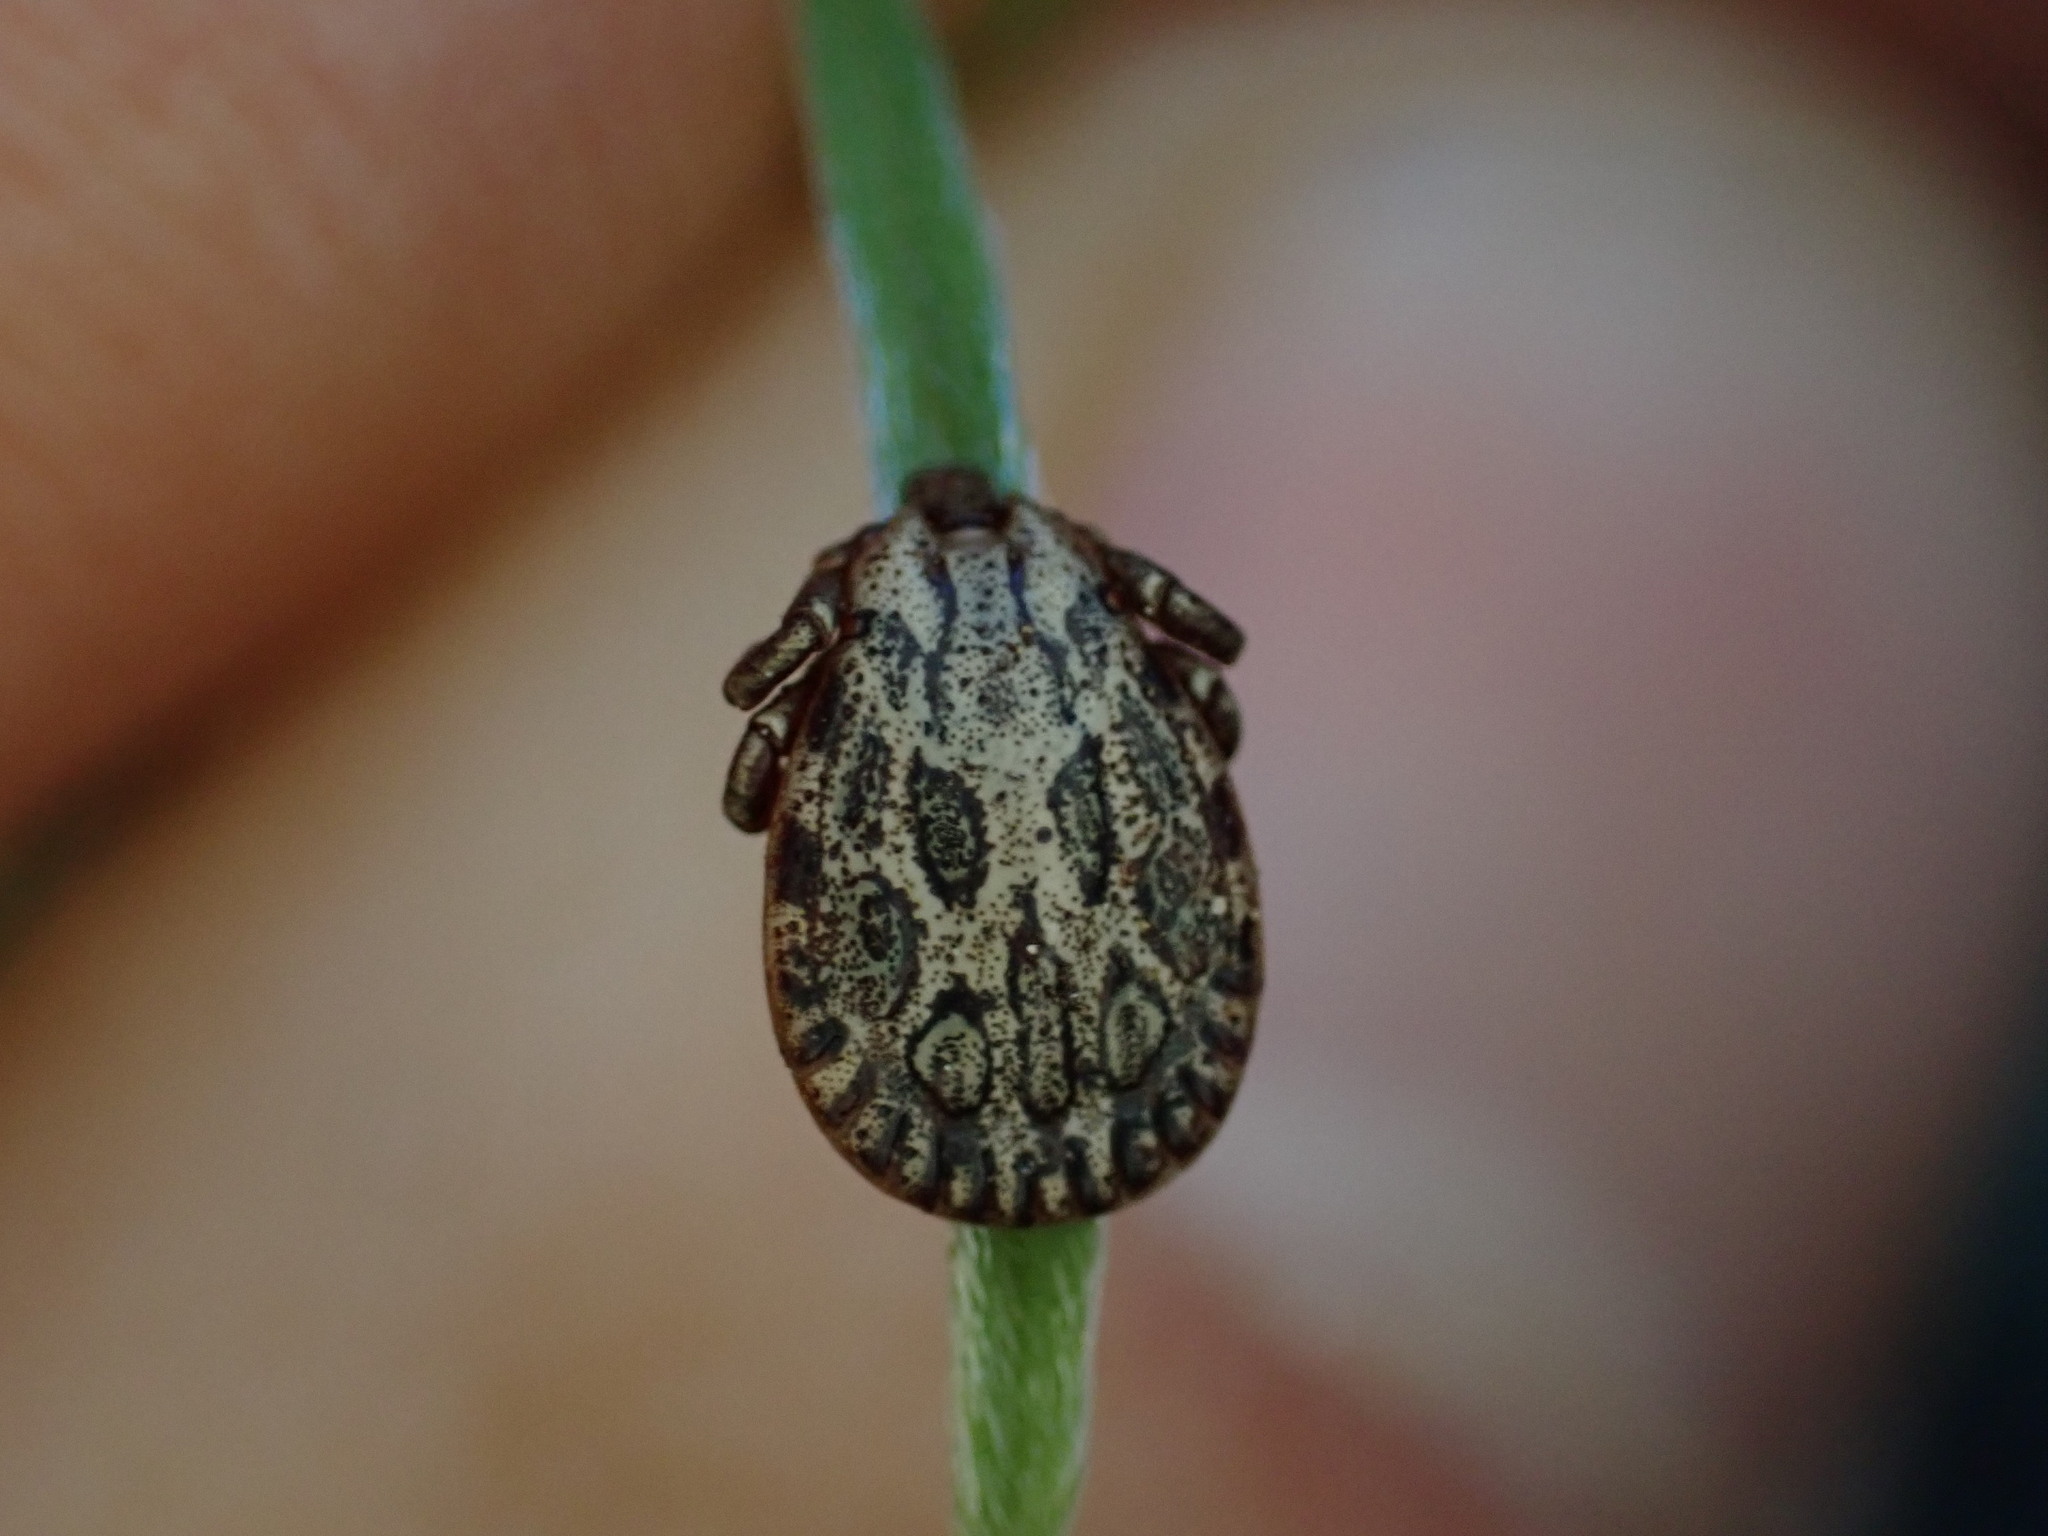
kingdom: Animalia
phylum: Arthropoda
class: Arachnida
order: Ixodida
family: Ixodidae
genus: Dermacentor
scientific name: Dermacentor marginatus
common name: Ornate sheep tick
